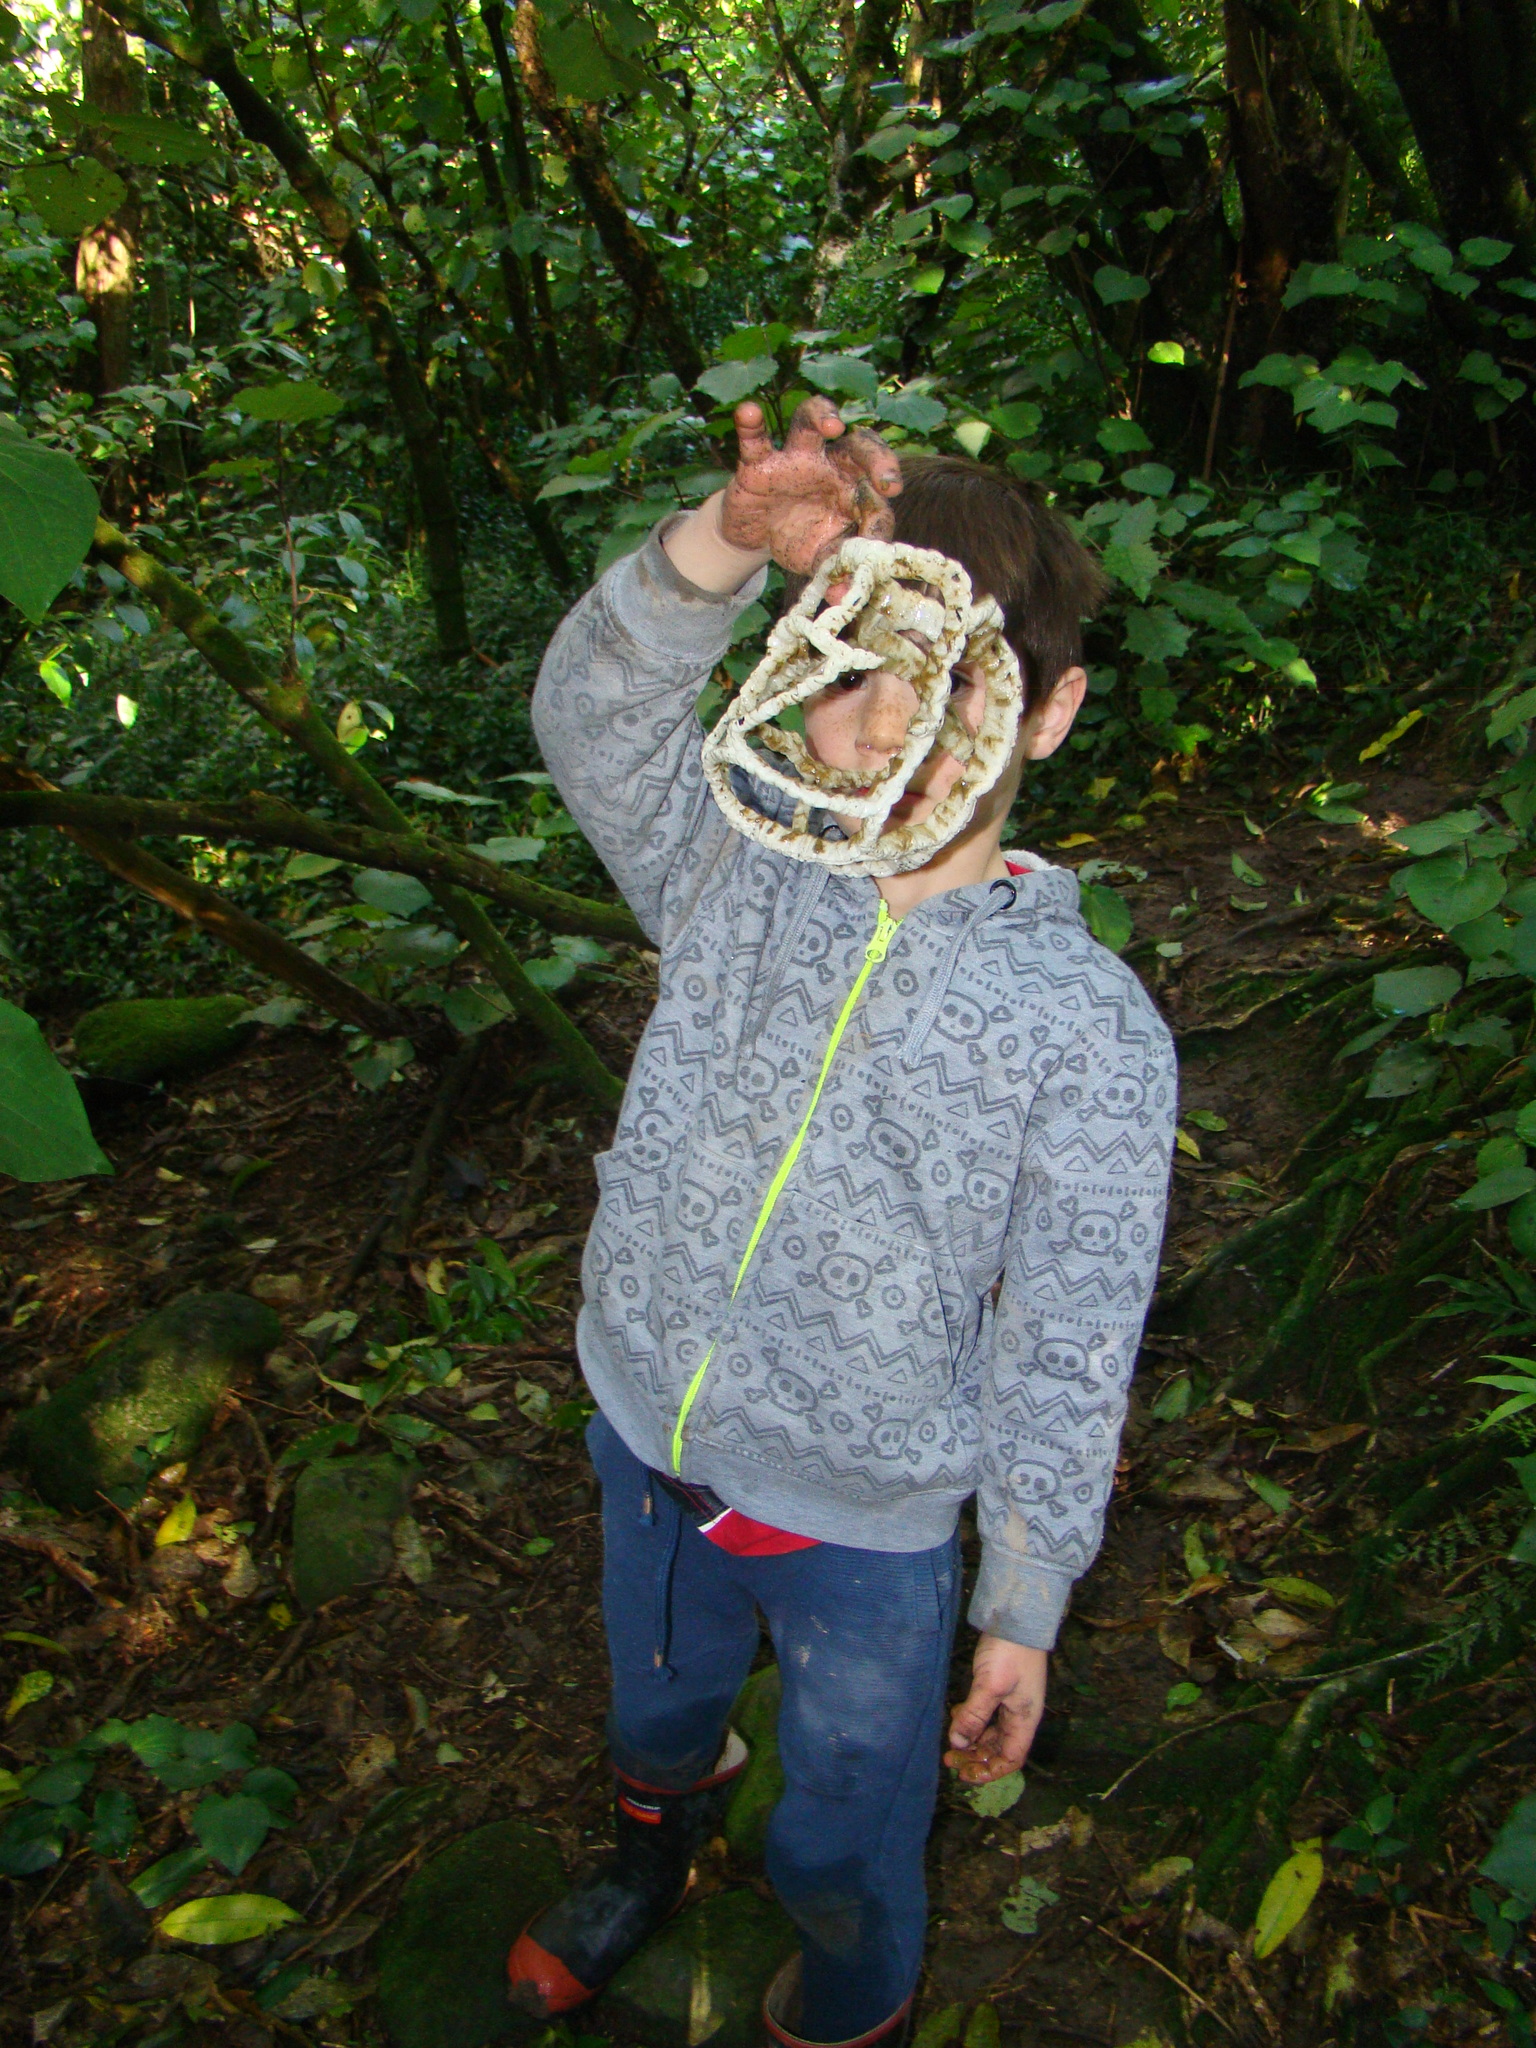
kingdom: Fungi
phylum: Basidiomycota
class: Agaricomycetes
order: Phallales
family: Phallaceae
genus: Ileodictyon
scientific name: Ileodictyon cibarium
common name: Basket fungus
